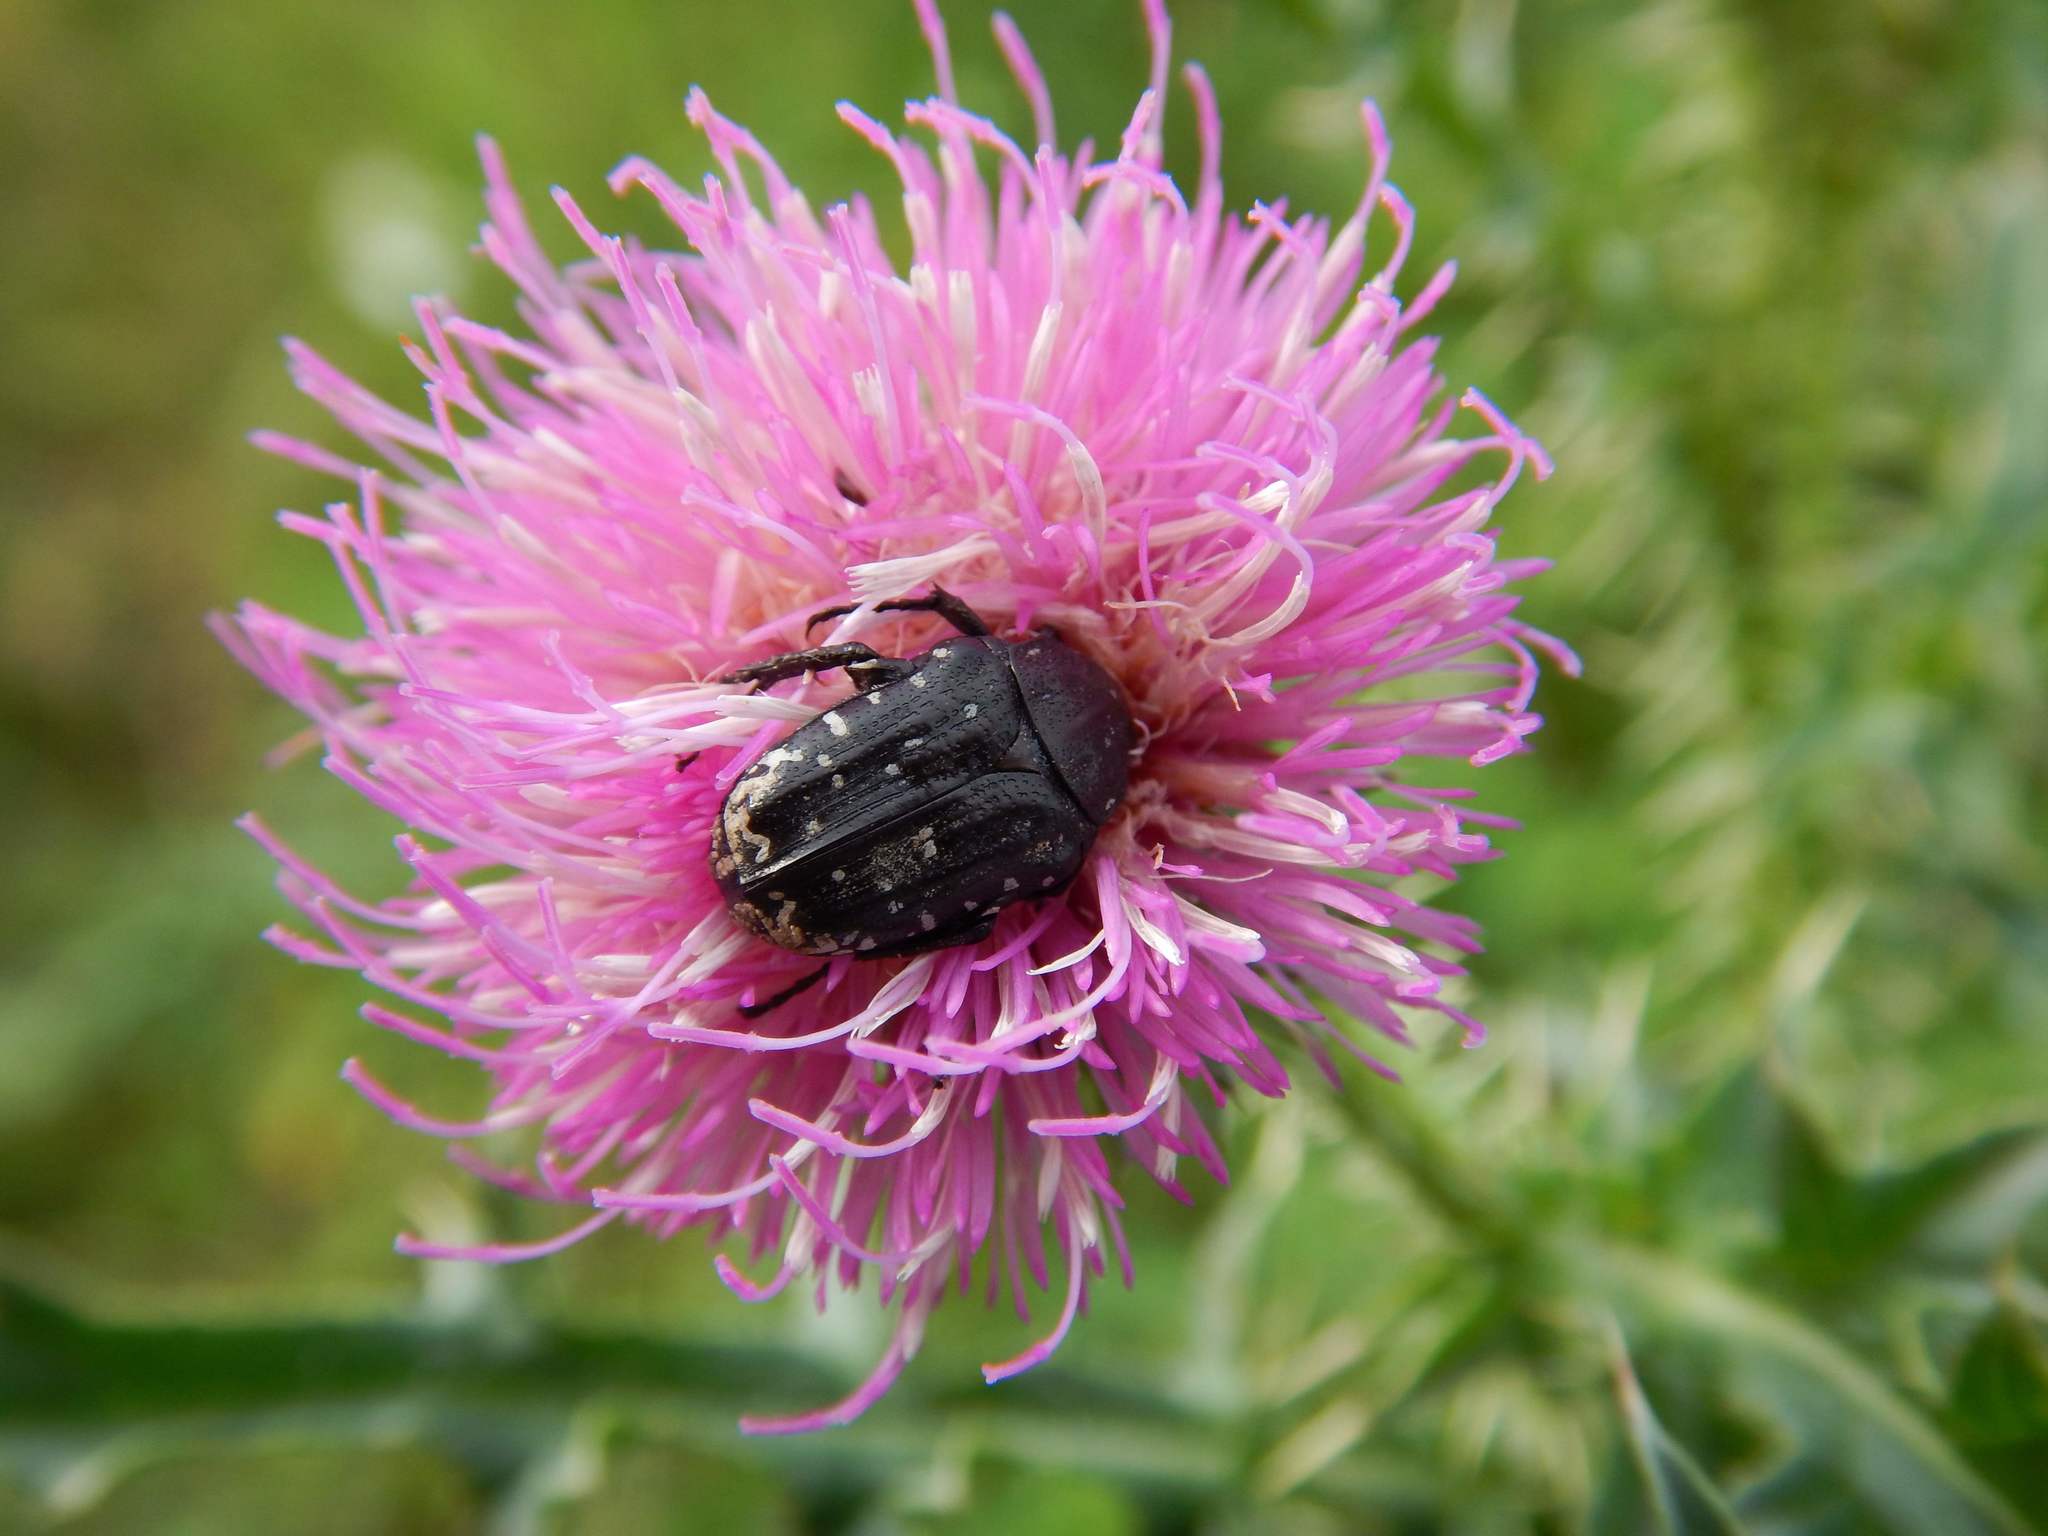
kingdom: Animalia
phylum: Arthropoda
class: Insecta
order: Coleoptera
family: Scarabaeidae
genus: Oxythyrea
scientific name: Oxythyrea funesta
